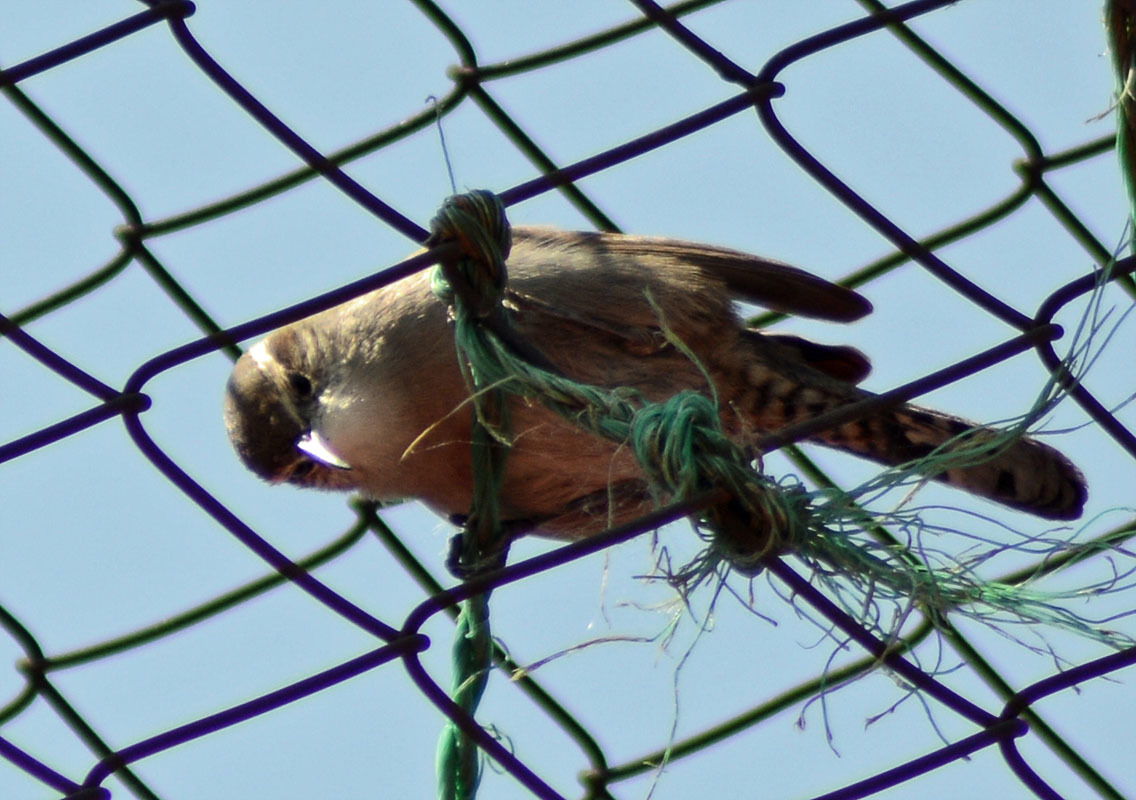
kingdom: Animalia
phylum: Chordata
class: Aves
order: Passeriformes
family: Troglodytidae
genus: Thryomanes
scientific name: Thryomanes bewickii
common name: Bewick's wren
